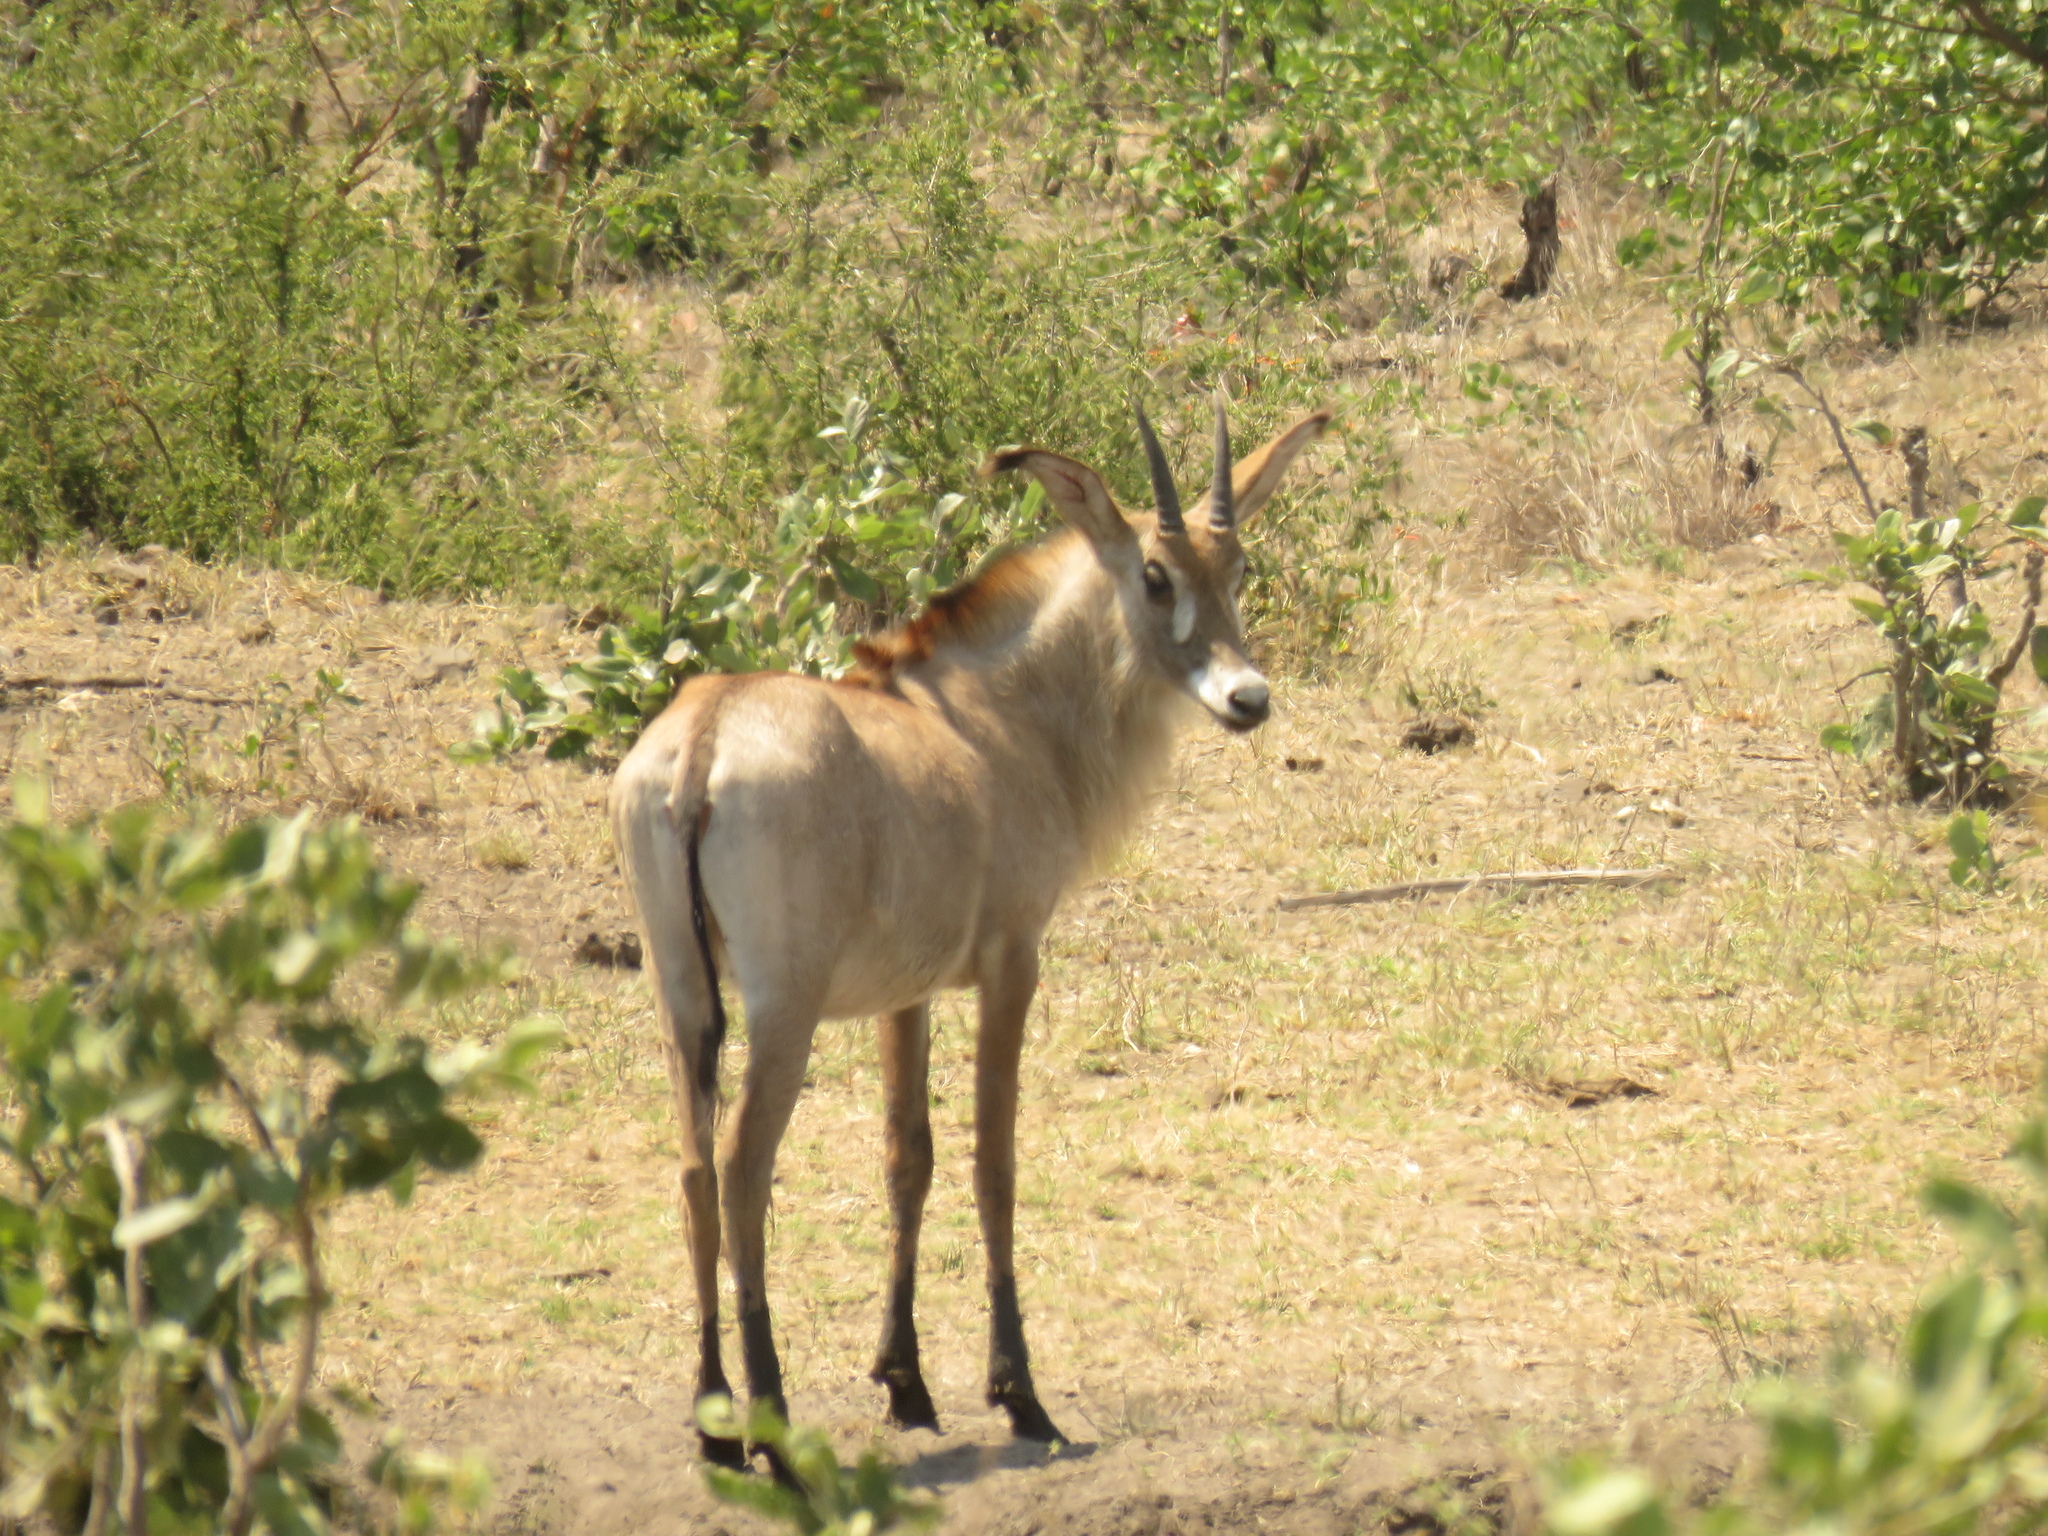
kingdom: Animalia
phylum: Chordata
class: Mammalia
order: Artiodactyla
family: Bovidae
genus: Hippotragus
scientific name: Hippotragus equinus
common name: Roan antelope
